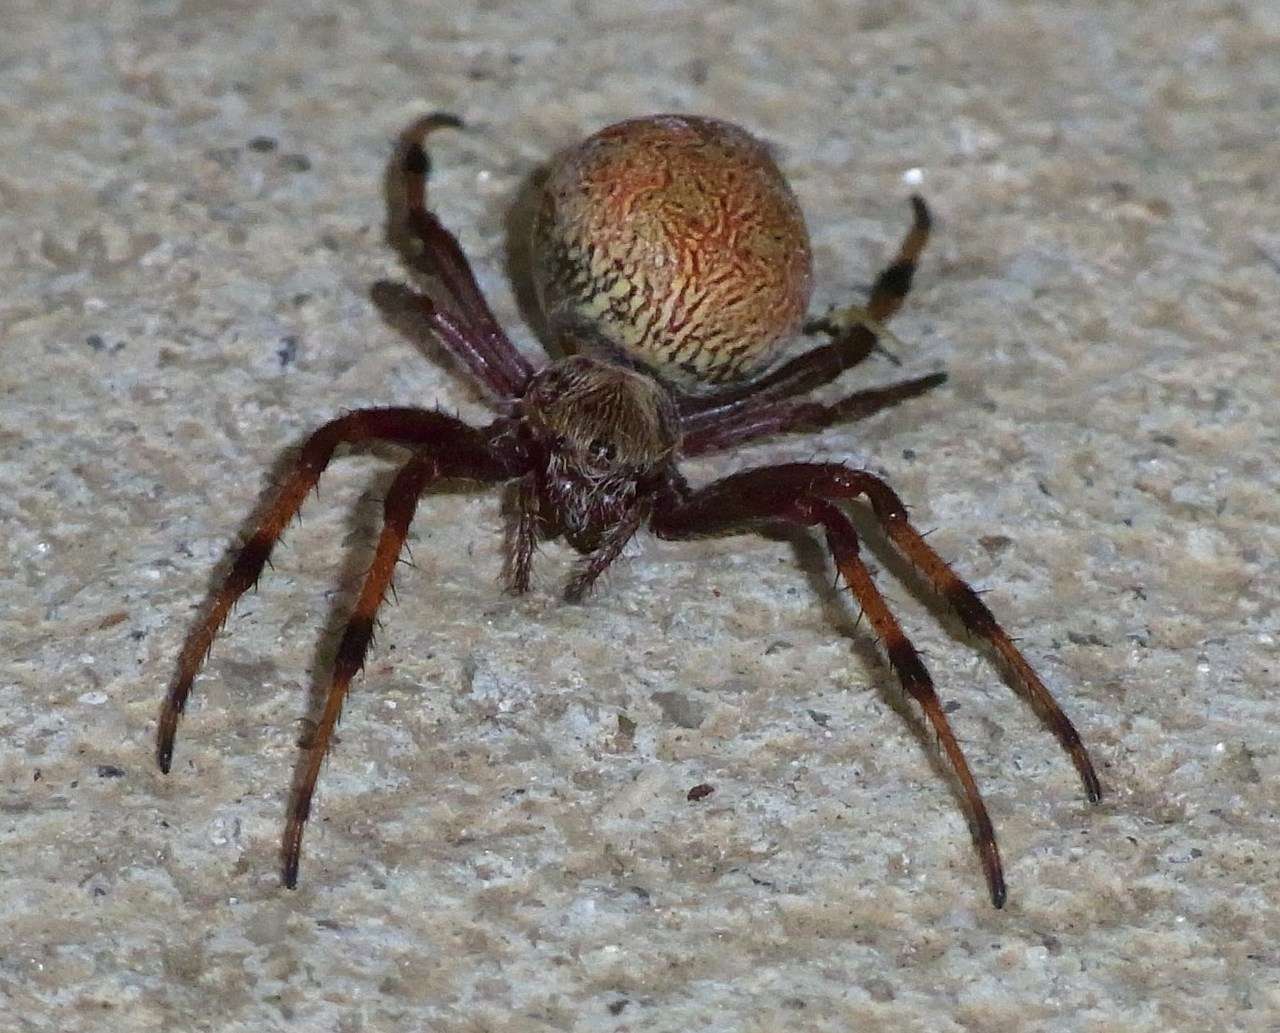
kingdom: Animalia
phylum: Arthropoda
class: Arachnida
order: Araneae
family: Araneidae
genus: Salsa
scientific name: Salsa fuliginata
